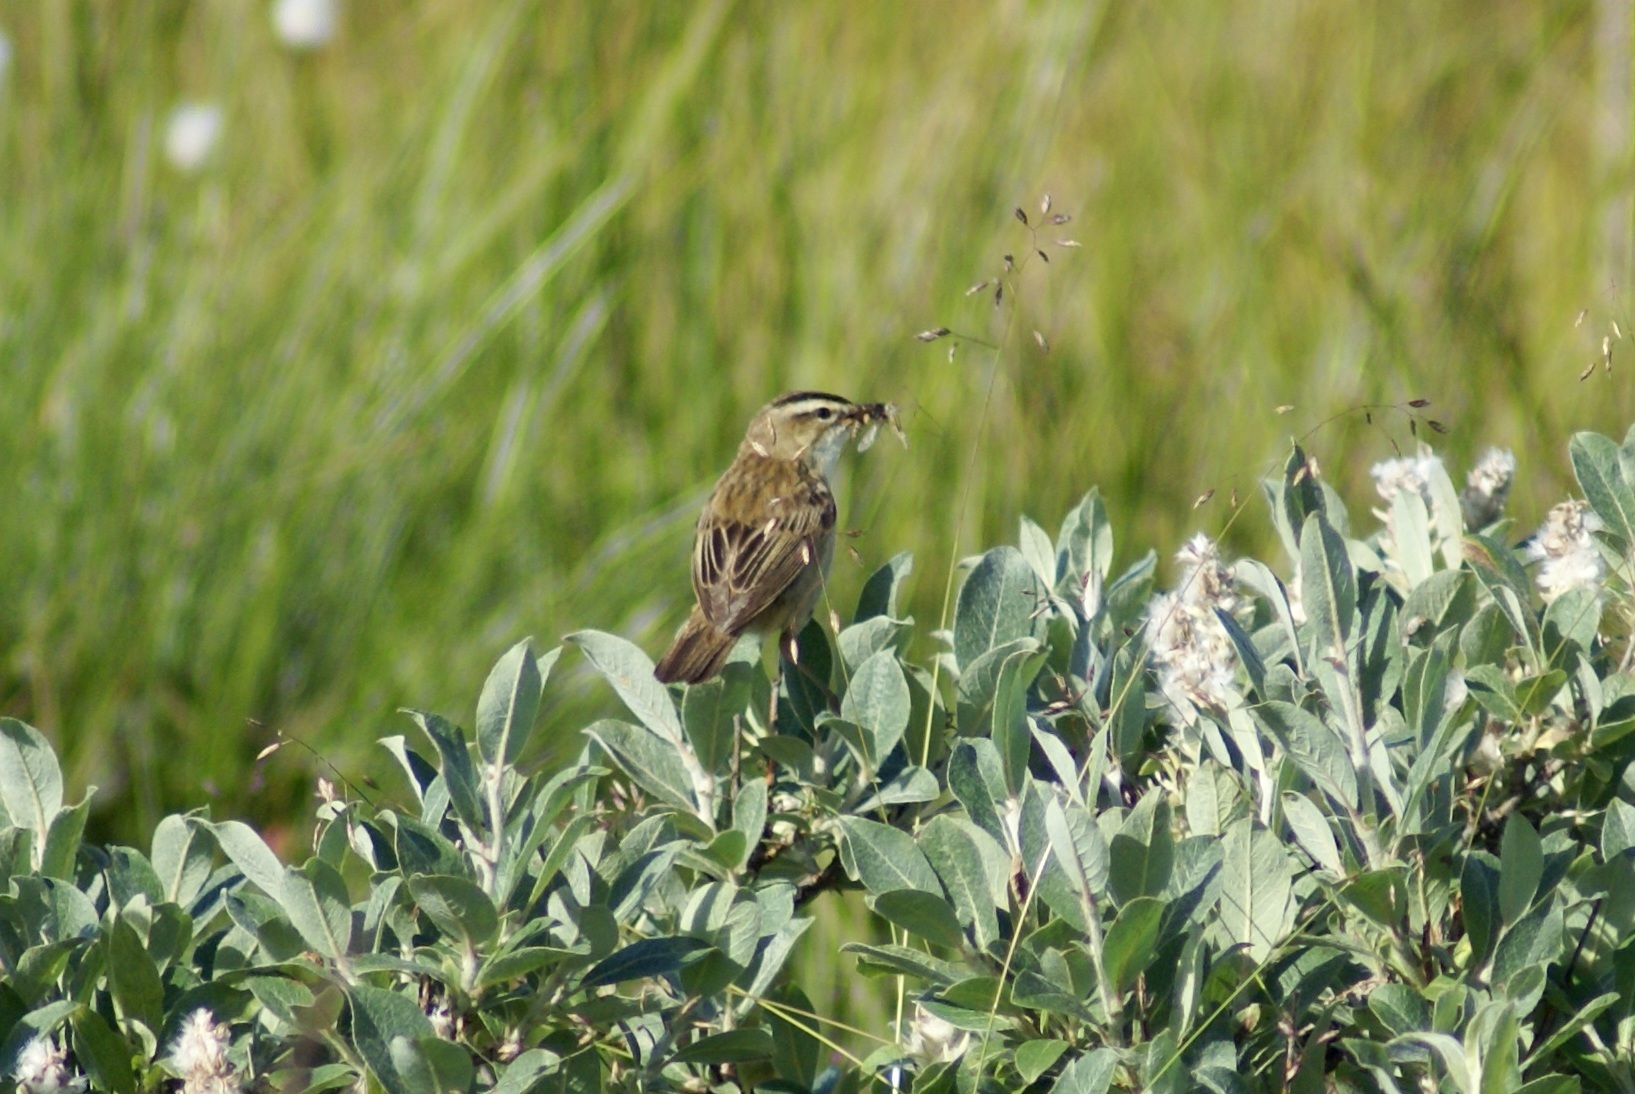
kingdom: Animalia
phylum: Chordata
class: Aves
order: Passeriformes
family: Acrocephalidae
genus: Acrocephalus
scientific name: Acrocephalus schoenobaenus
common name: Sedge warbler
